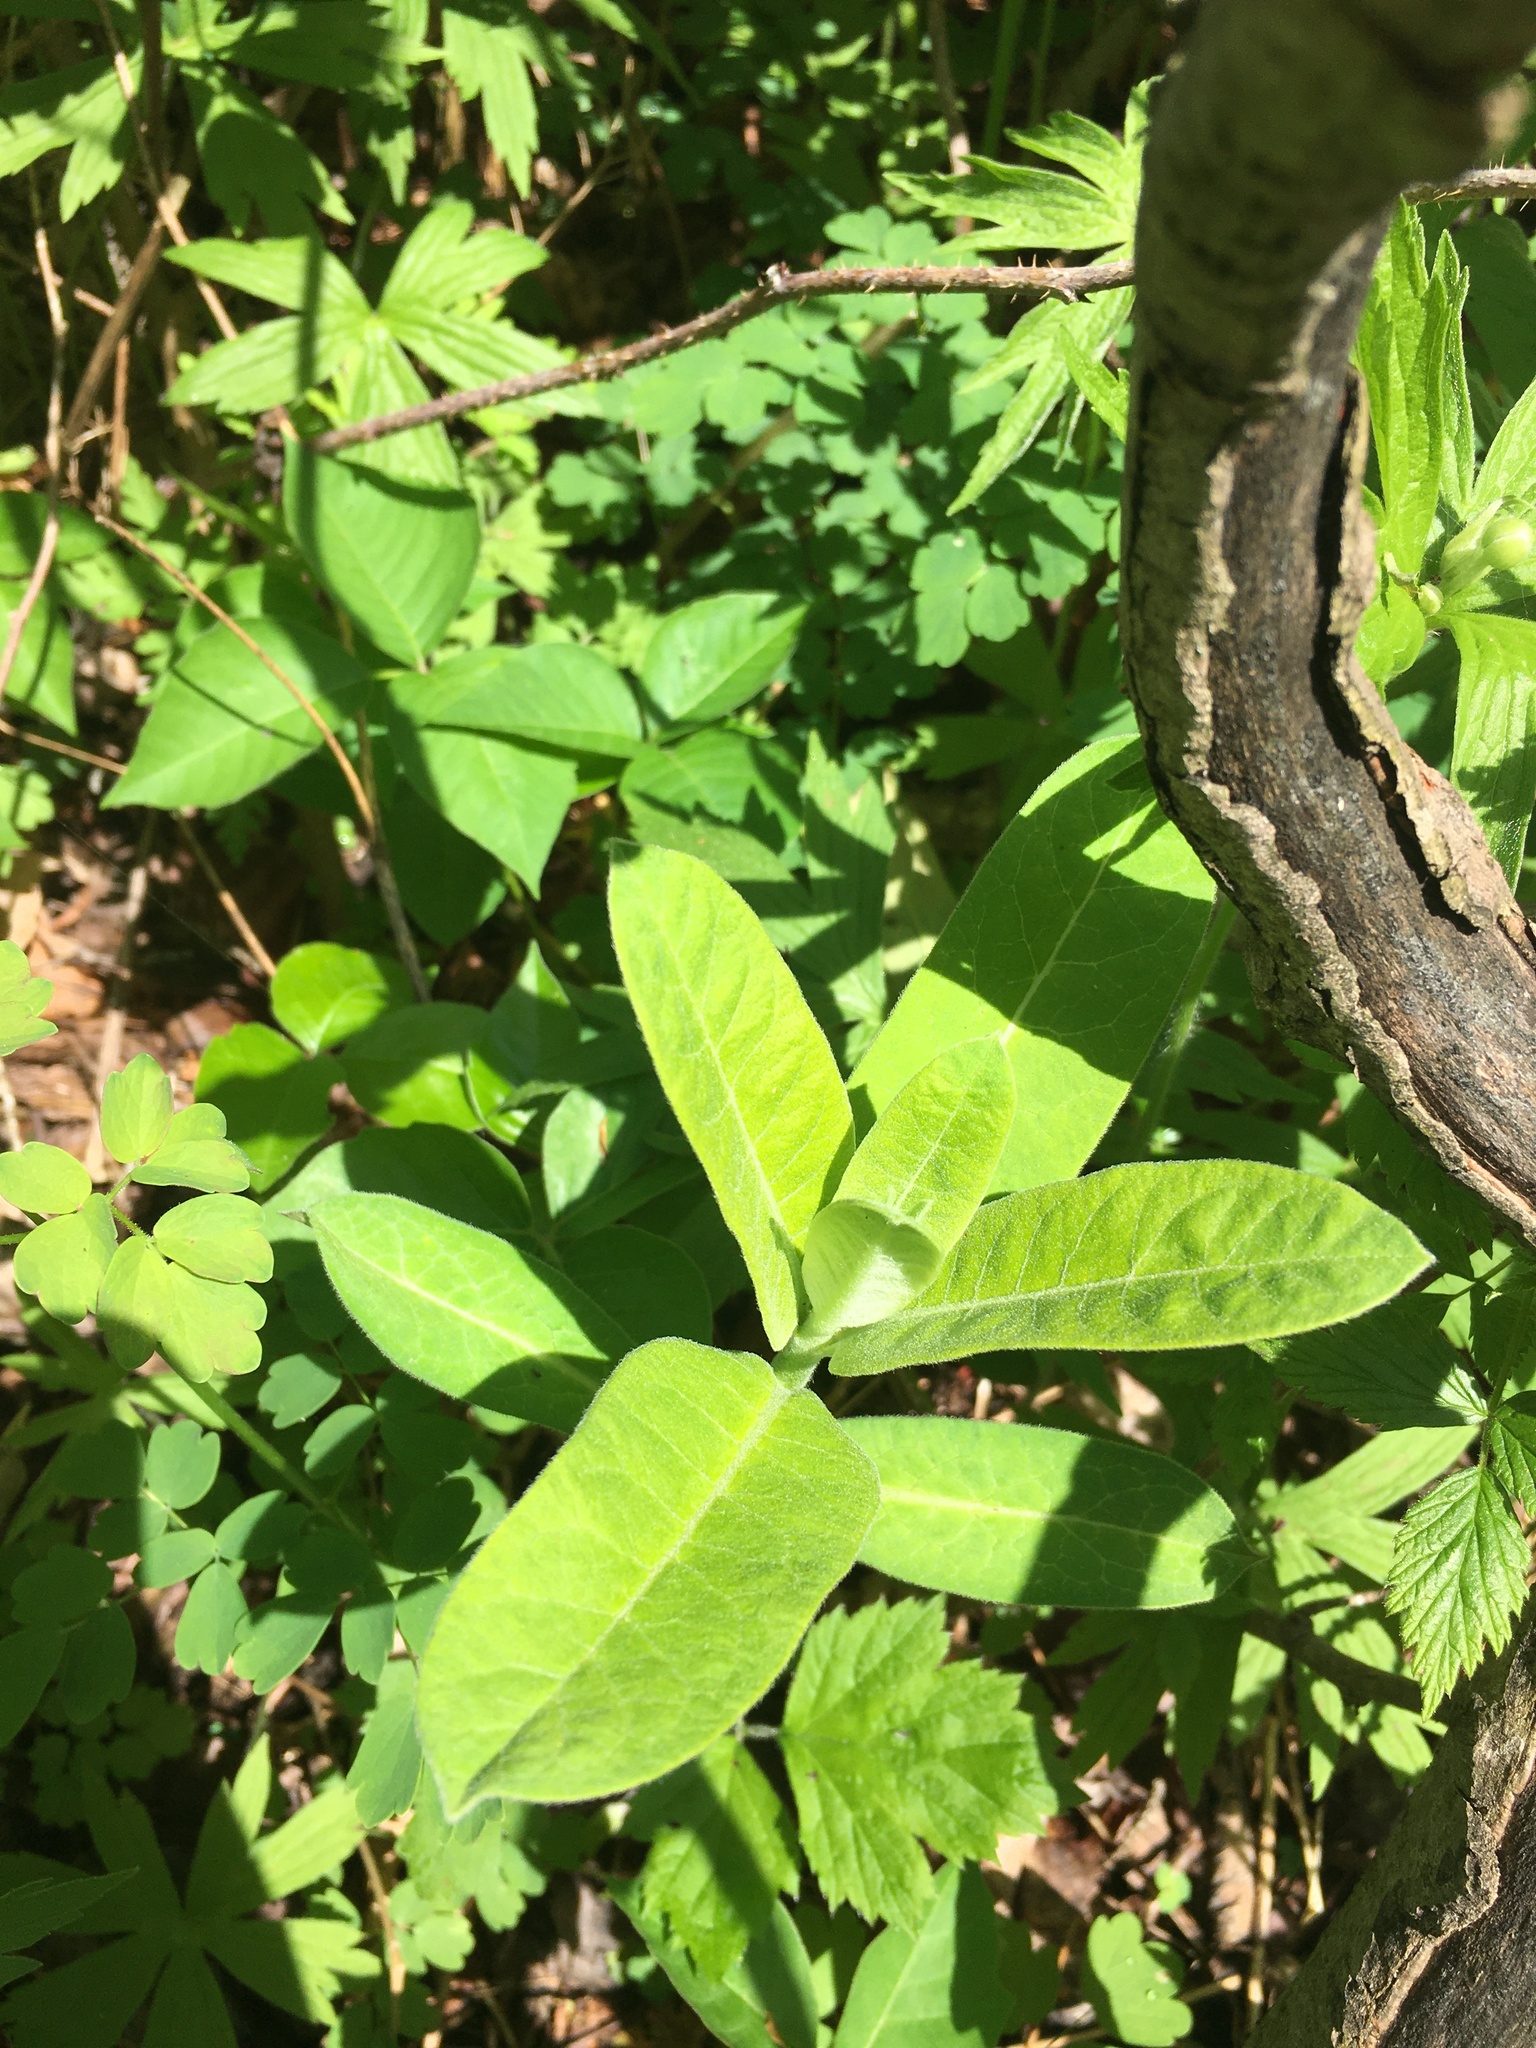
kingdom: Plantae
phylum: Tracheophyta
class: Magnoliopsida
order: Gentianales
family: Apocynaceae
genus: Asclepias
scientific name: Asclepias syriaca
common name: Common milkweed
